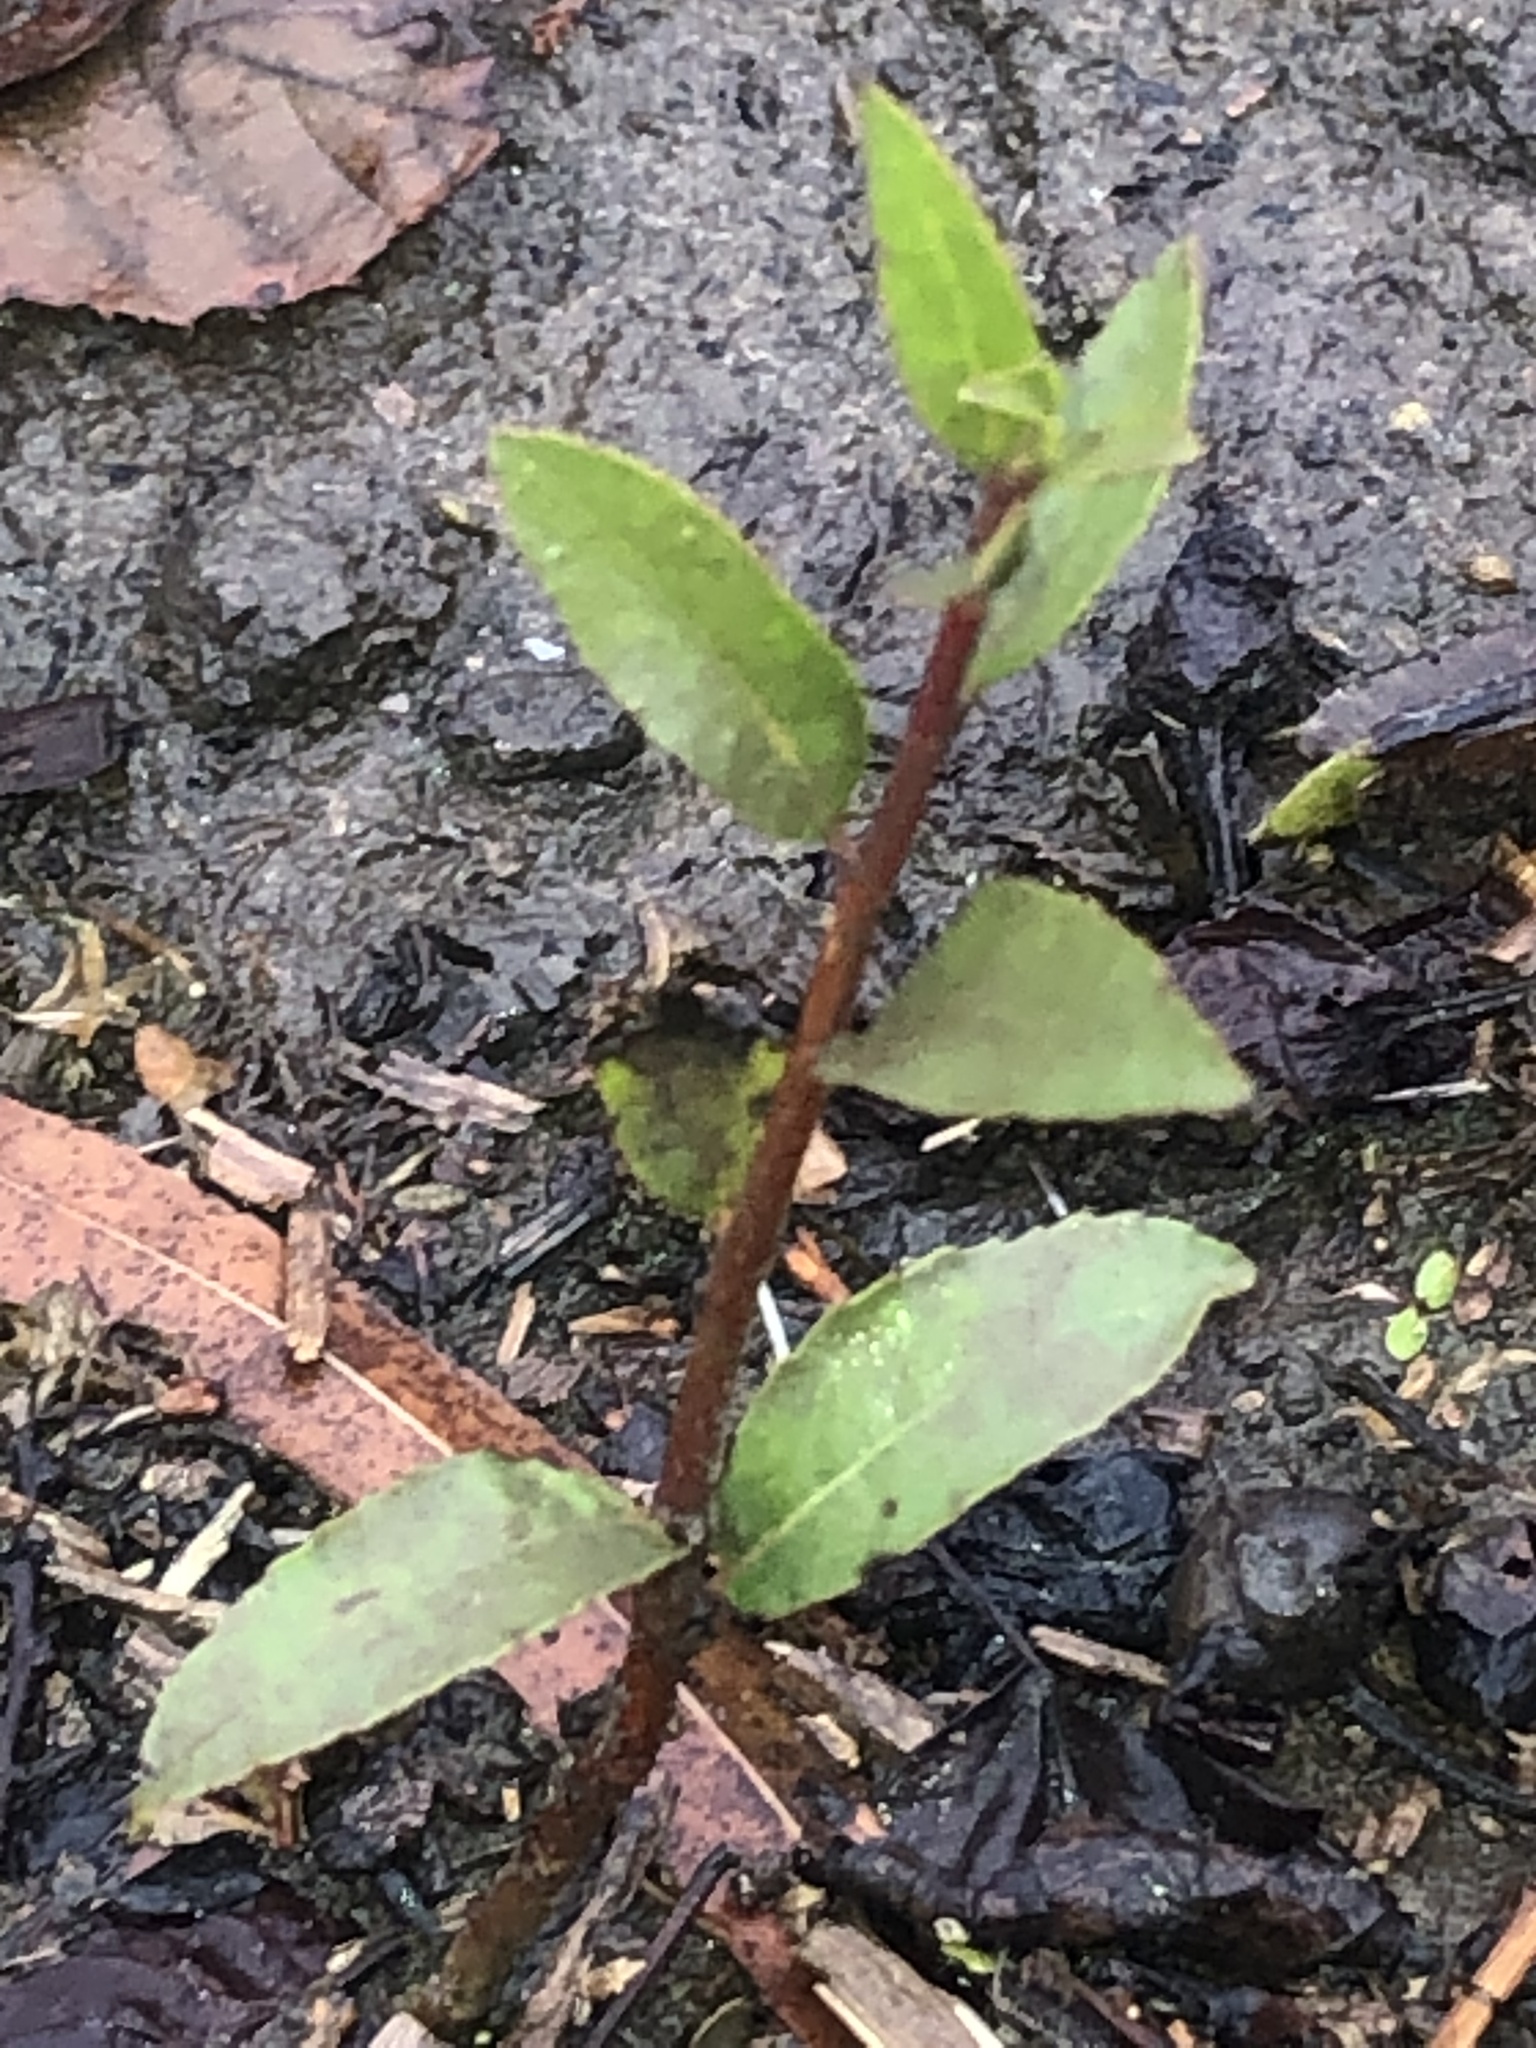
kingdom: Plantae
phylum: Tracheophyta
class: Magnoliopsida
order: Ericales
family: Ebenaceae
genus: Diospyros
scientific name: Diospyros virginiana
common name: Persimmon
